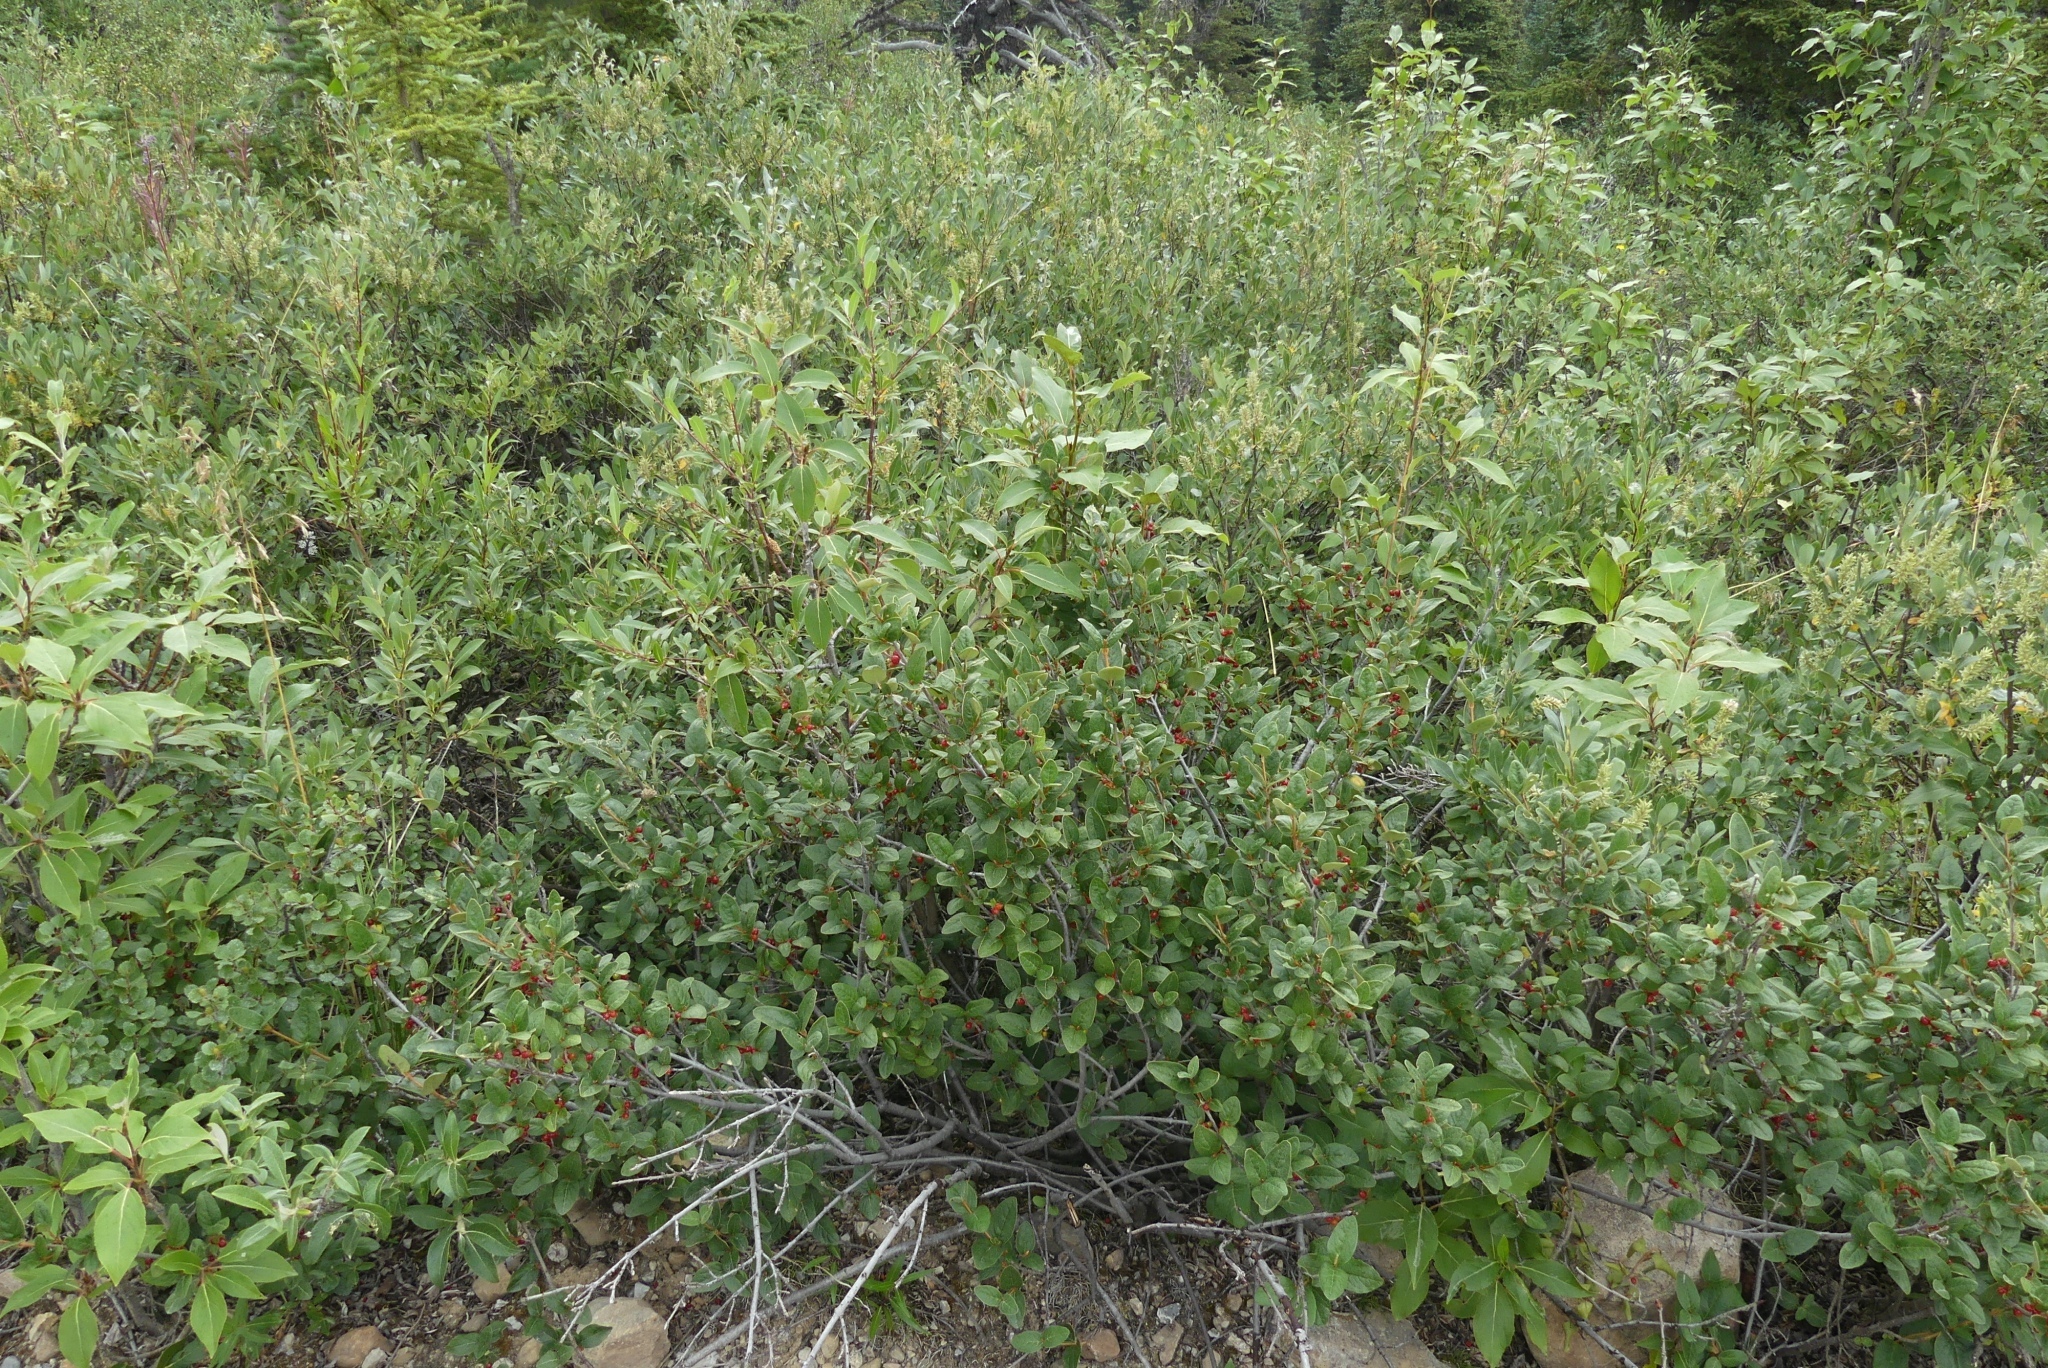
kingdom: Plantae
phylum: Tracheophyta
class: Magnoliopsida
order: Rosales
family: Elaeagnaceae
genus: Shepherdia
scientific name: Shepherdia canadensis
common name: Soapberry
